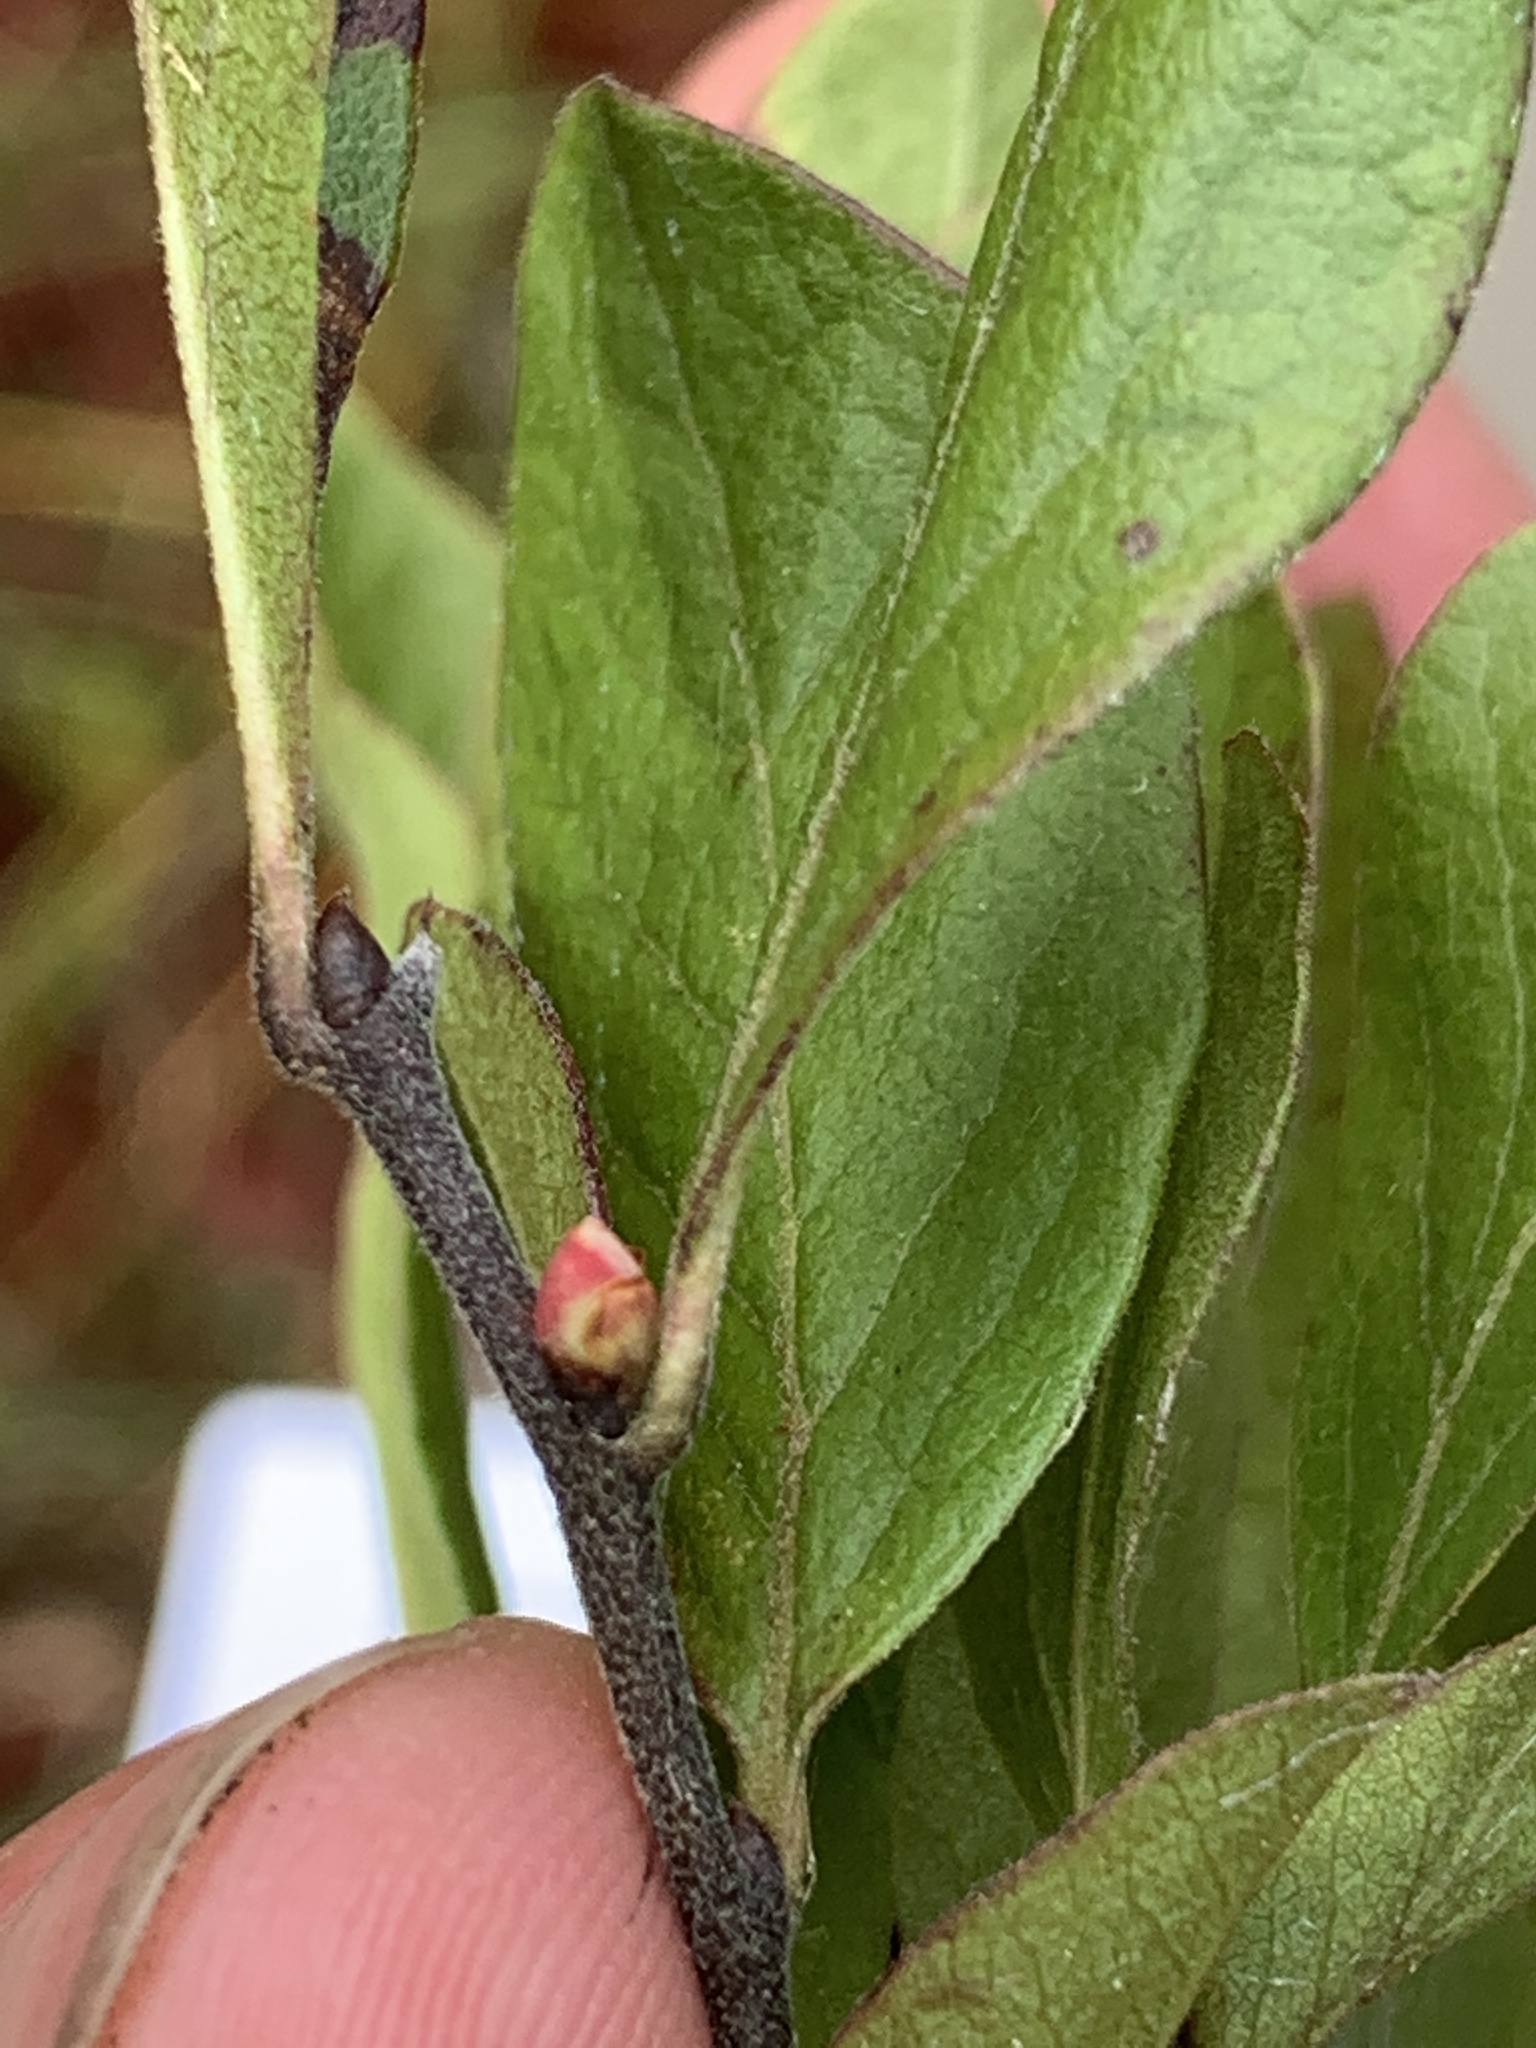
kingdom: Plantae
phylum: Tracheophyta
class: Magnoliopsida
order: Ericales
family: Ericaceae
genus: Gaylussacia
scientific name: Gaylussacia baccata
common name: Black huckleberry
